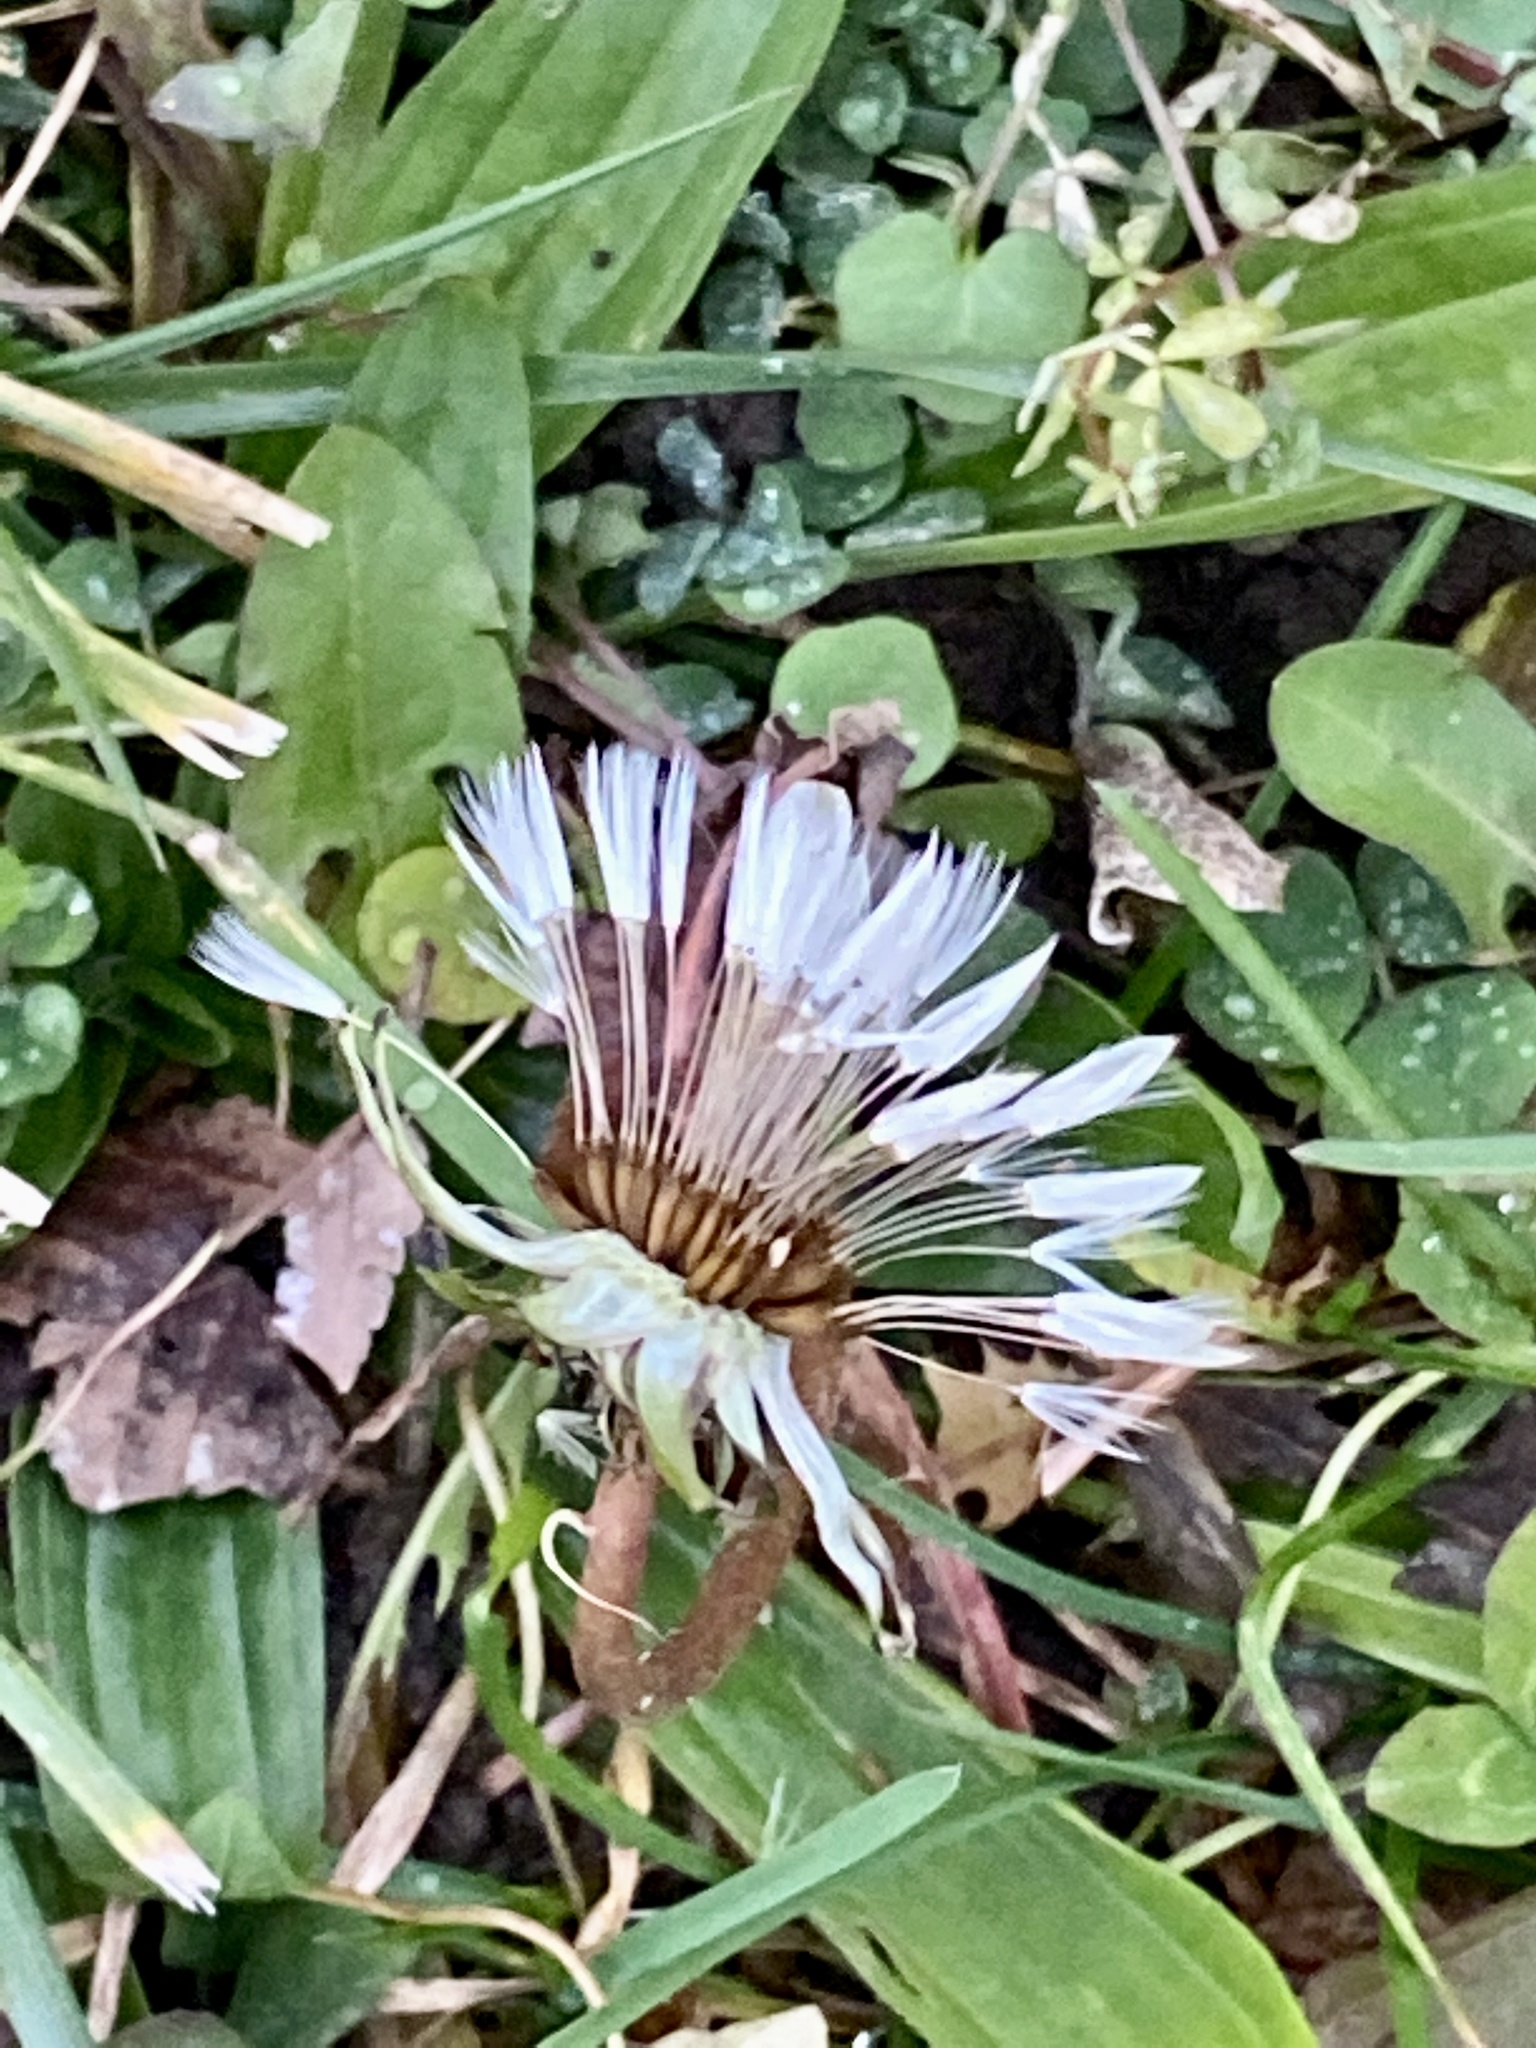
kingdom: Plantae
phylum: Tracheophyta
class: Magnoliopsida
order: Asterales
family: Asteraceae
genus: Taraxacum
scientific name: Taraxacum officinale
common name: Common dandelion
